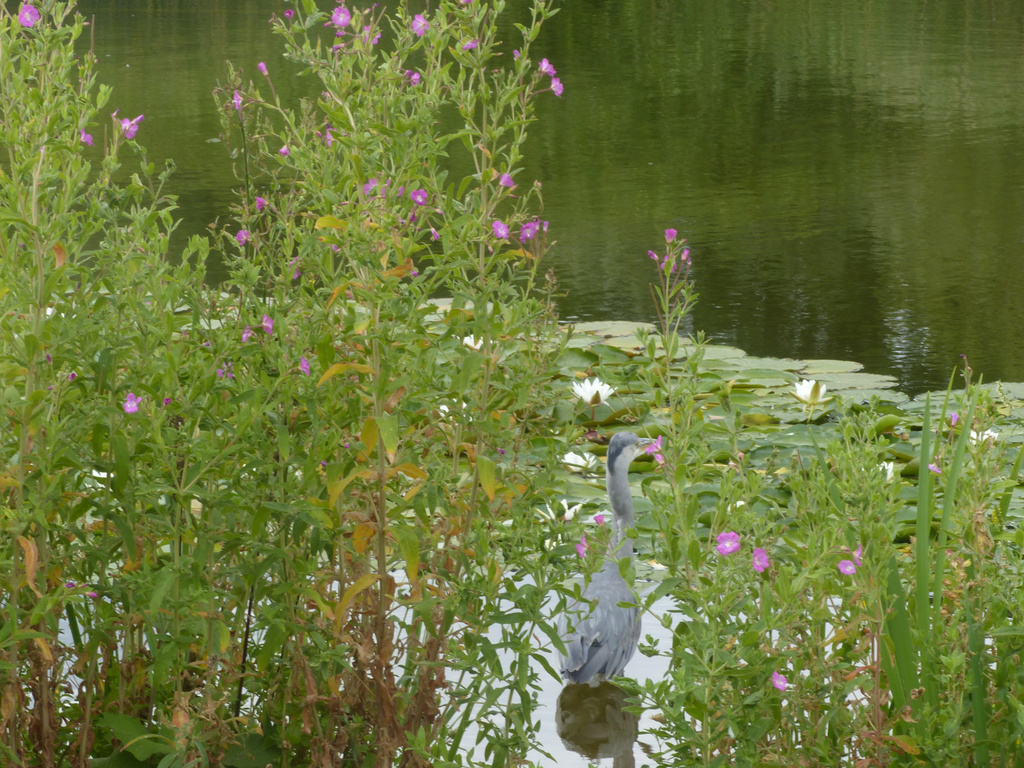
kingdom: Animalia
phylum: Chordata
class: Aves
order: Pelecaniformes
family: Ardeidae
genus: Ardea
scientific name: Ardea cinerea
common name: Grey heron
